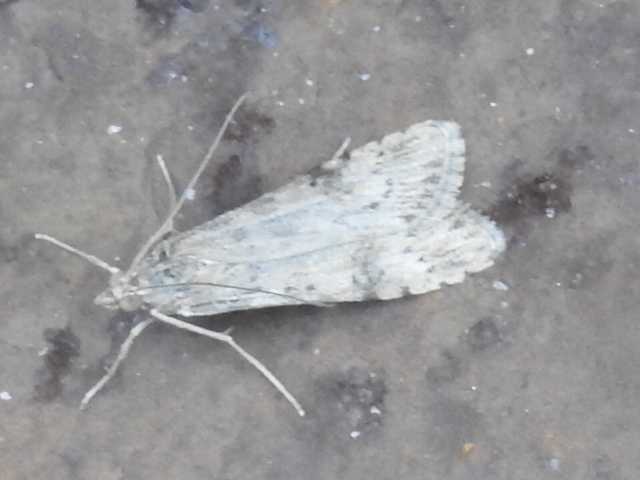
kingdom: Animalia
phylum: Arthropoda
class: Insecta
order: Lepidoptera
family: Crambidae
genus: Nomophila
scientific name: Nomophila nearctica
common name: American rush veneer
